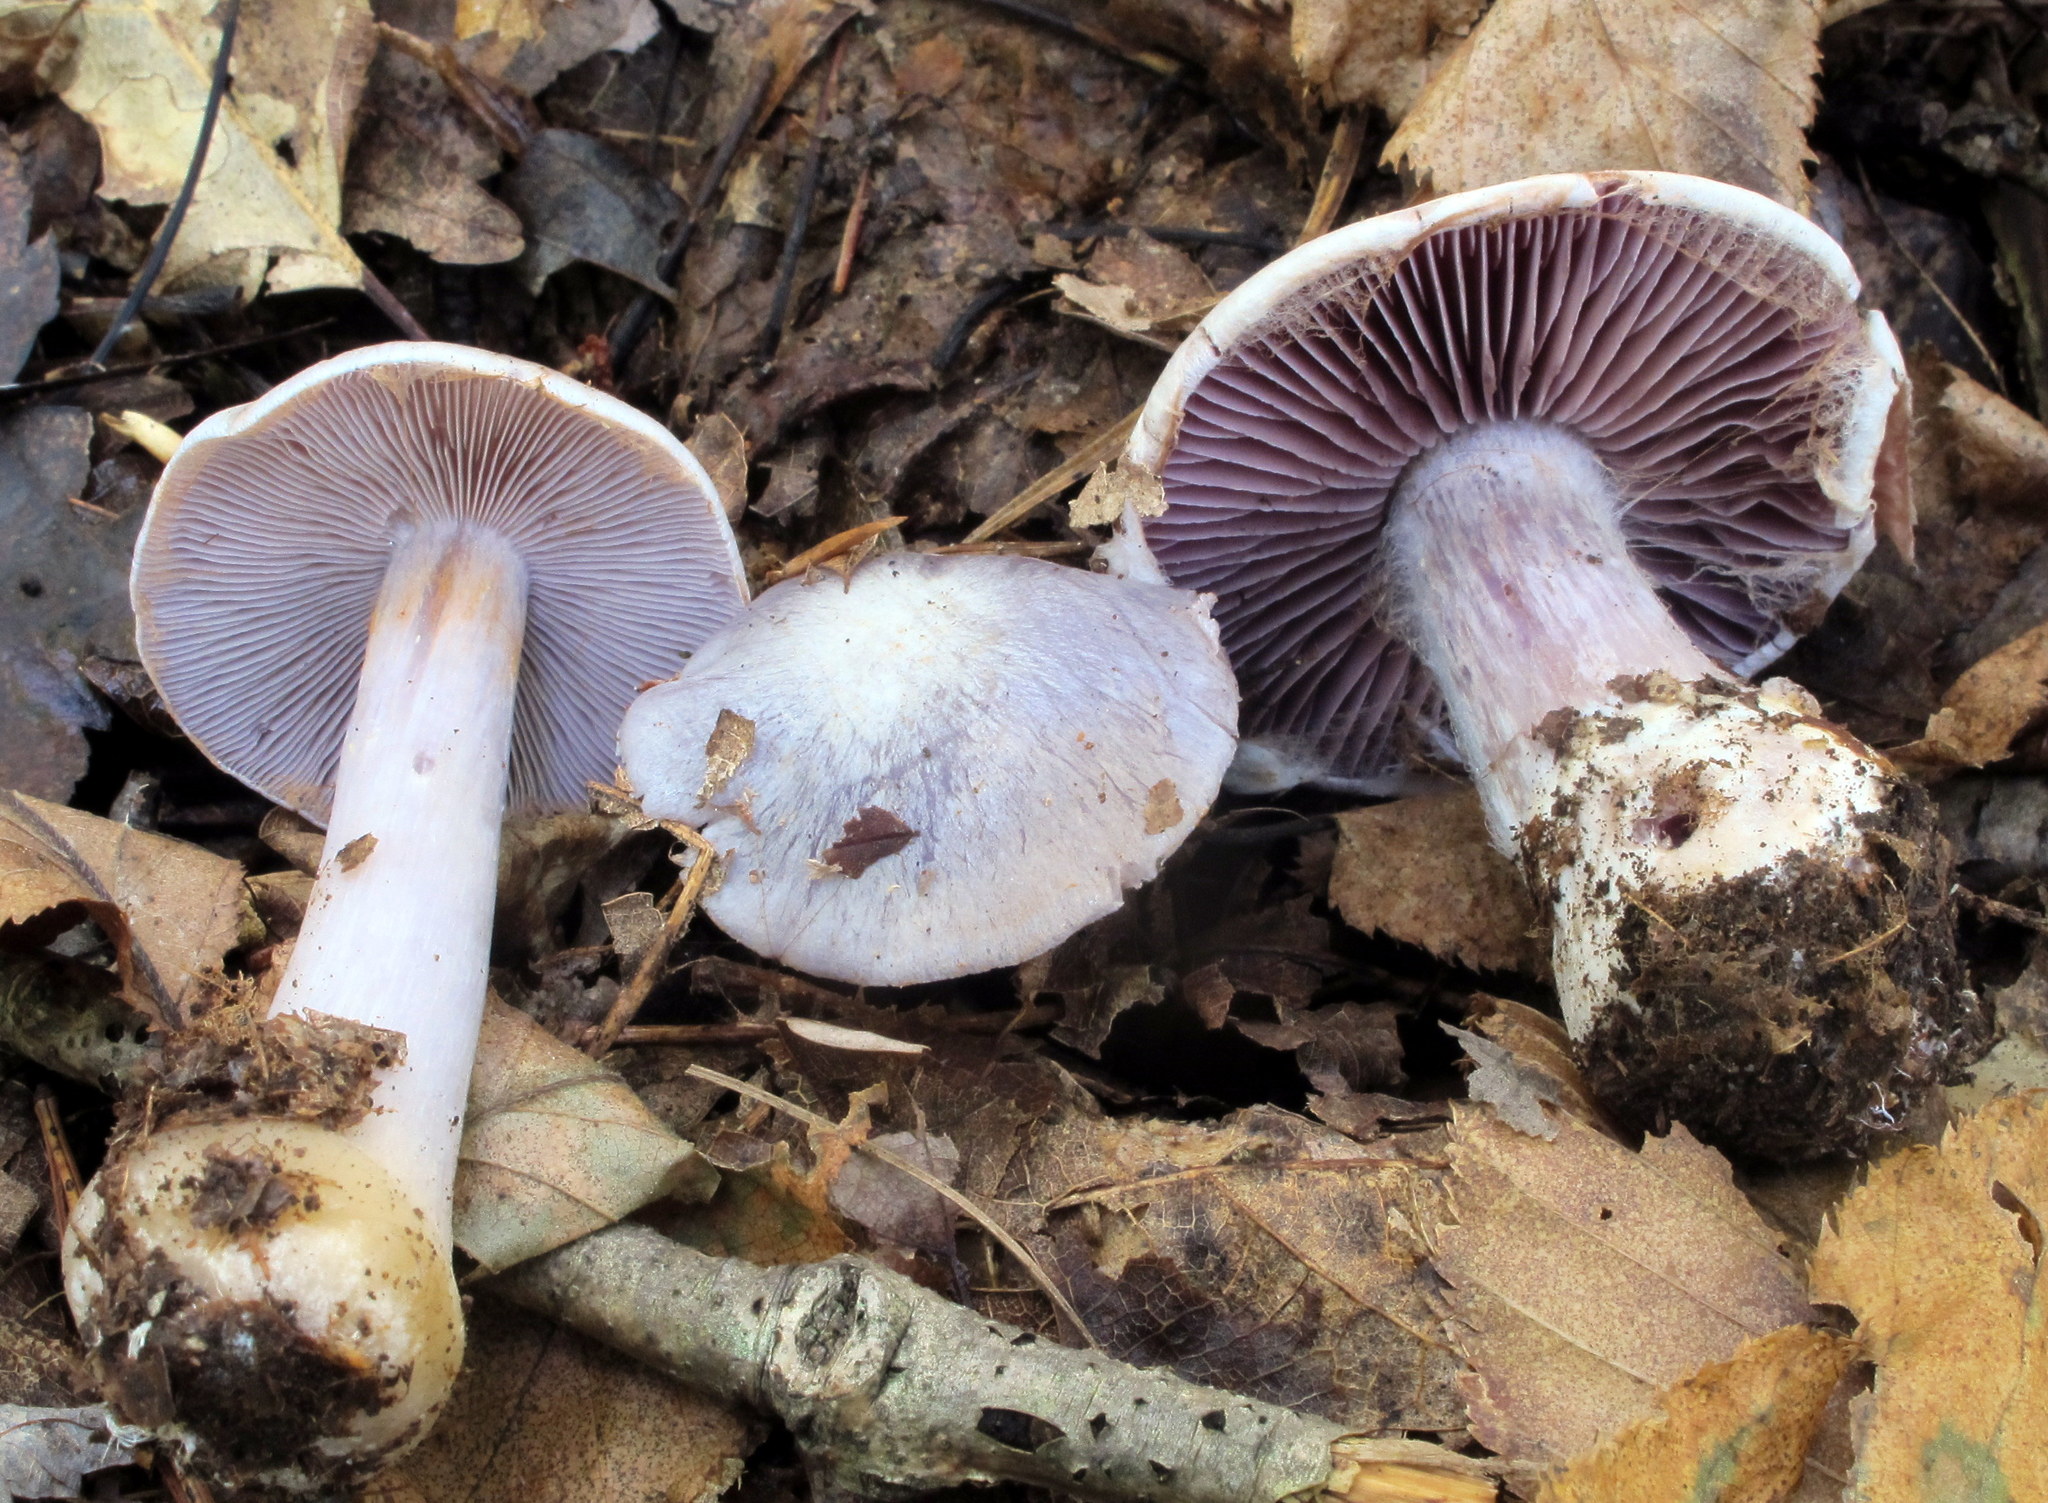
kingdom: Fungi
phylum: Basidiomycota
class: Agaricomycetes
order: Agaricales
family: Cortinariaceae
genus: Cortinarius
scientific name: Cortinarius argenteopileatus
